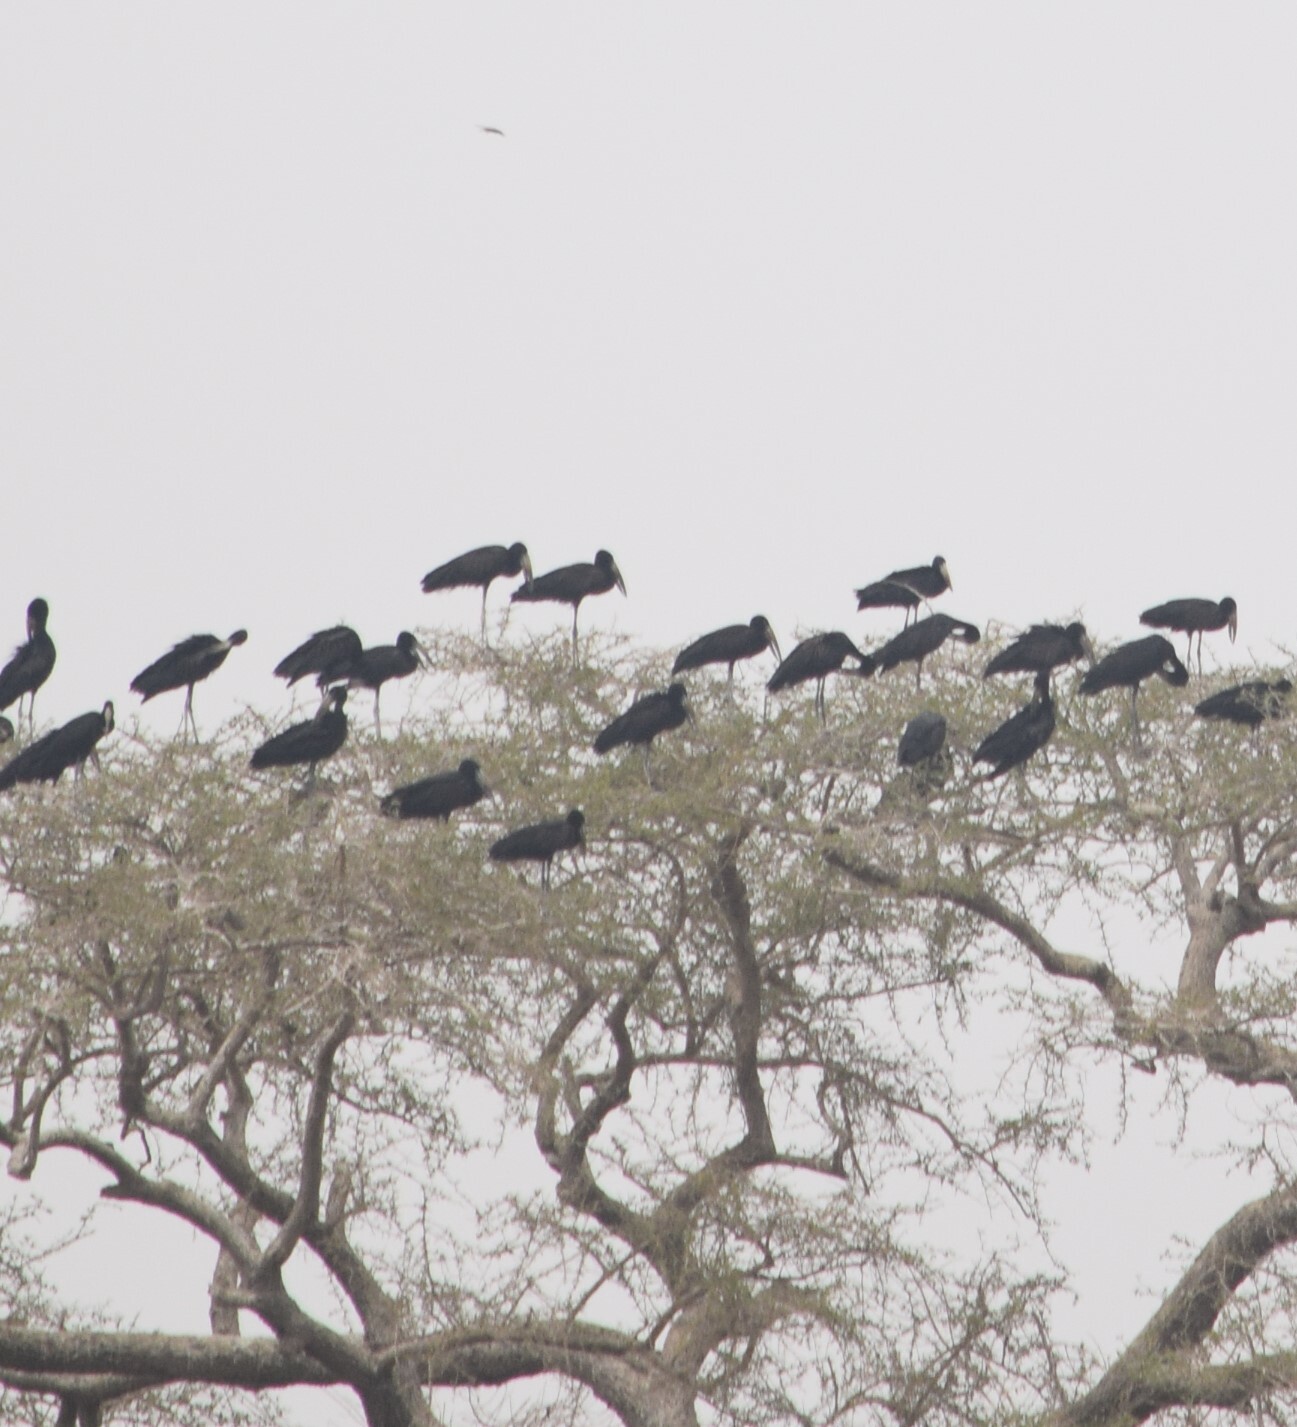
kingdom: Animalia
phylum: Chordata
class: Aves
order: Ciconiiformes
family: Ciconiidae
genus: Anastomus
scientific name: Anastomus lamelligerus
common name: African openbill
